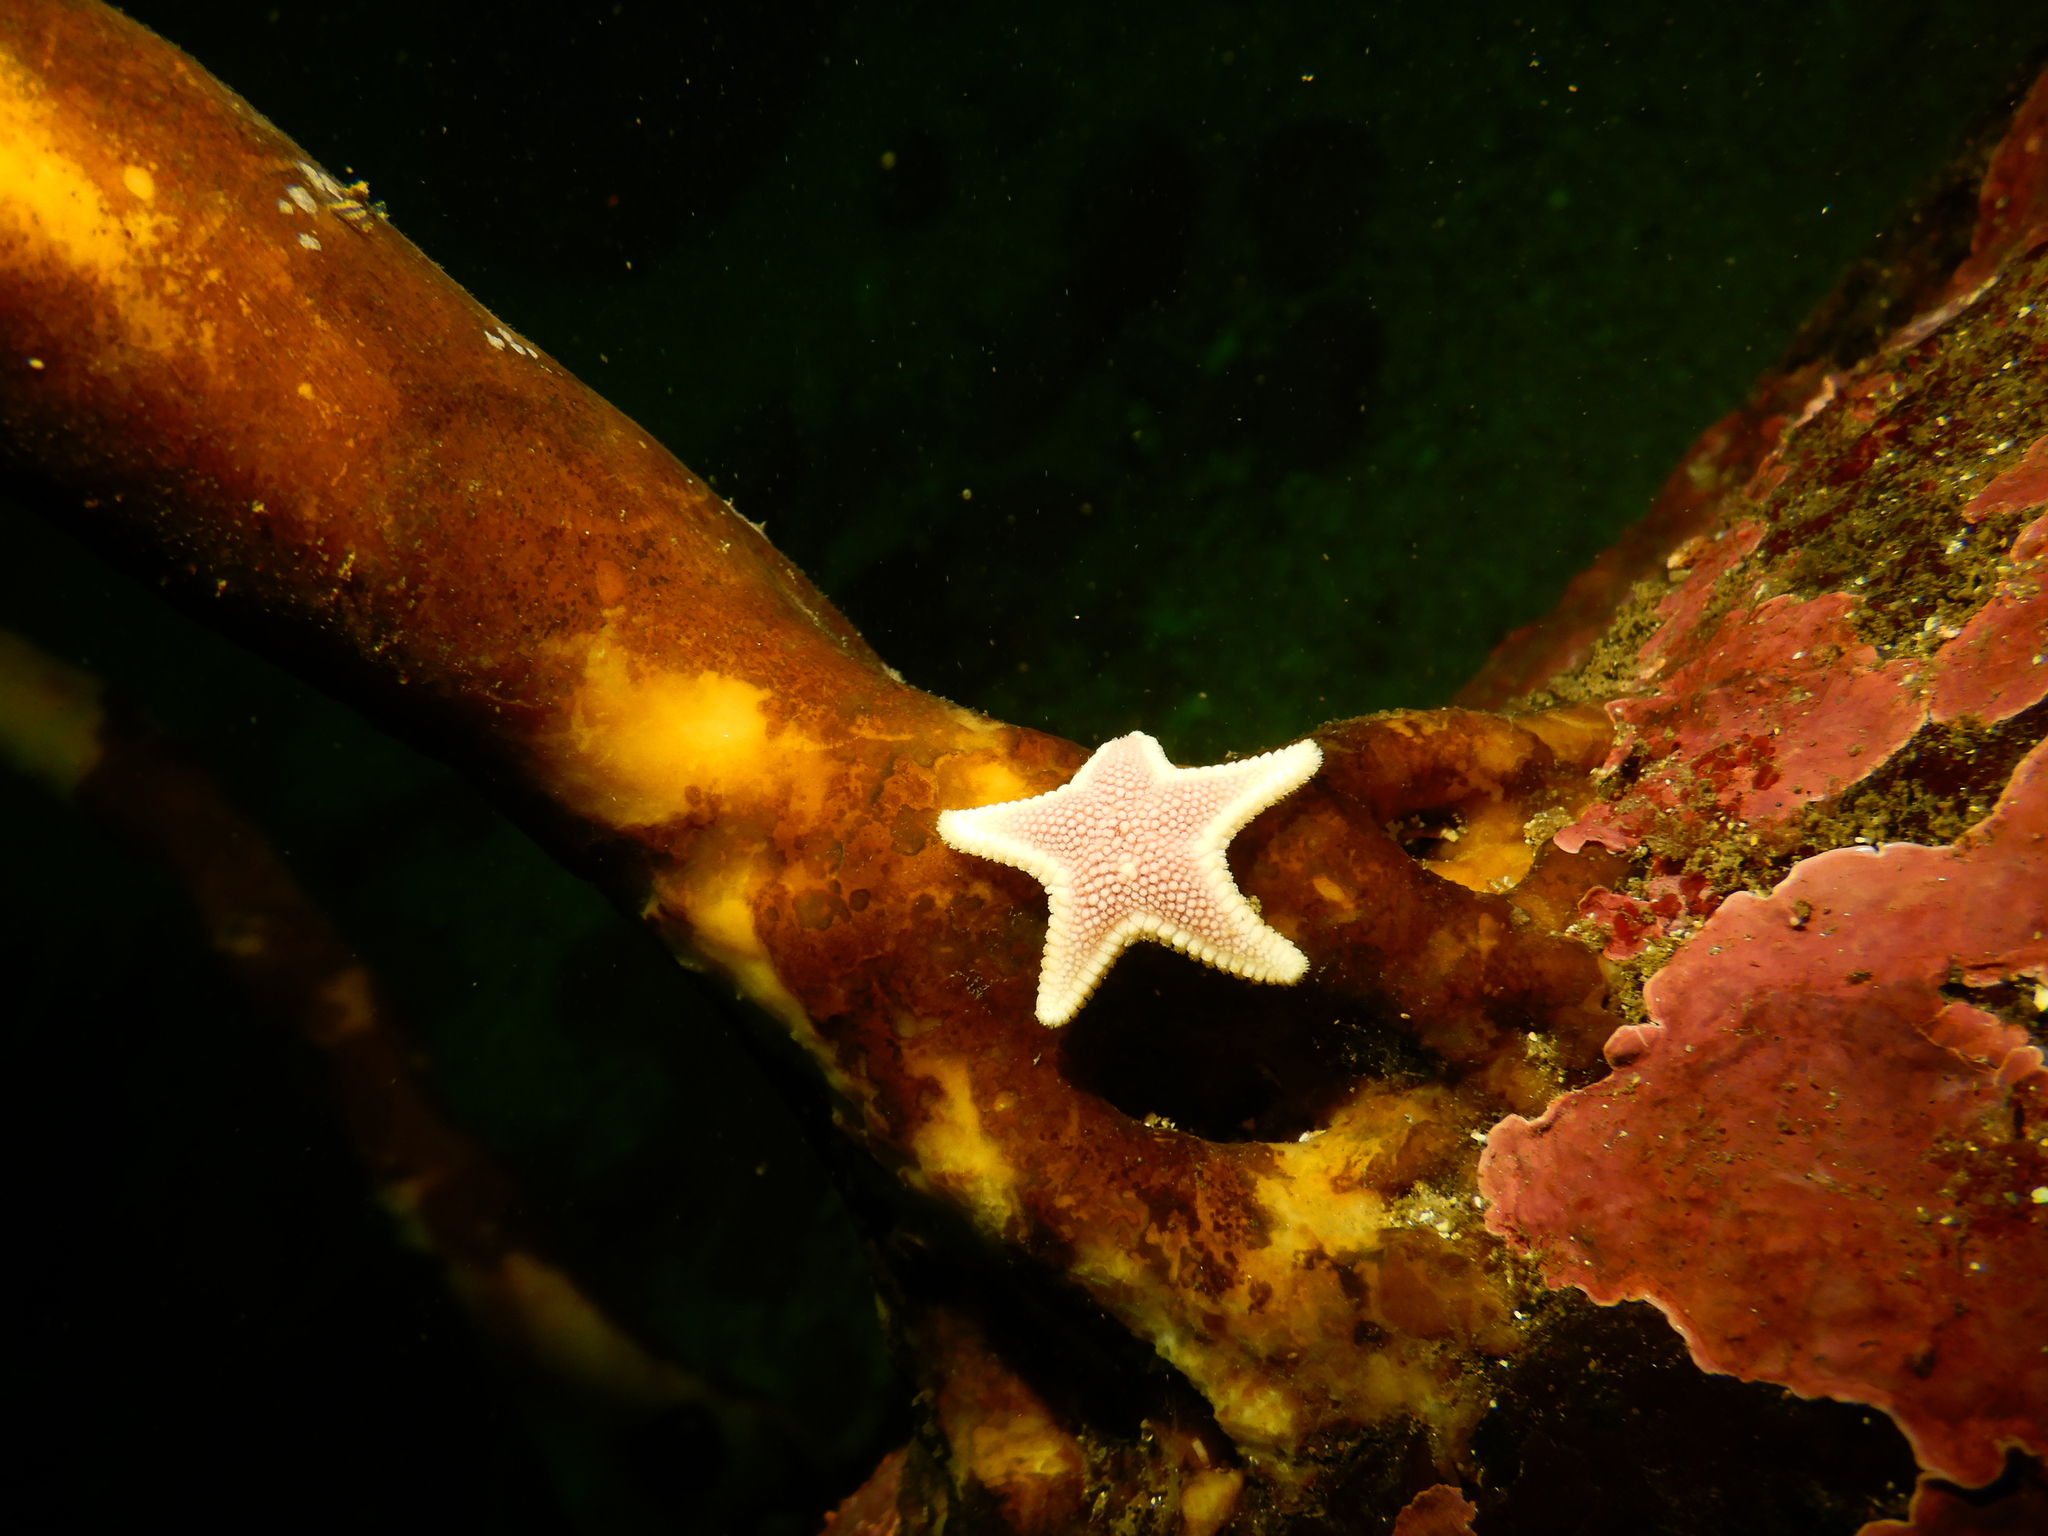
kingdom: Animalia
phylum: Echinodermata
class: Asteroidea
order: Valvatida
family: Odontasteridae
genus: Odontaster
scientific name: Odontaster penicillatus
